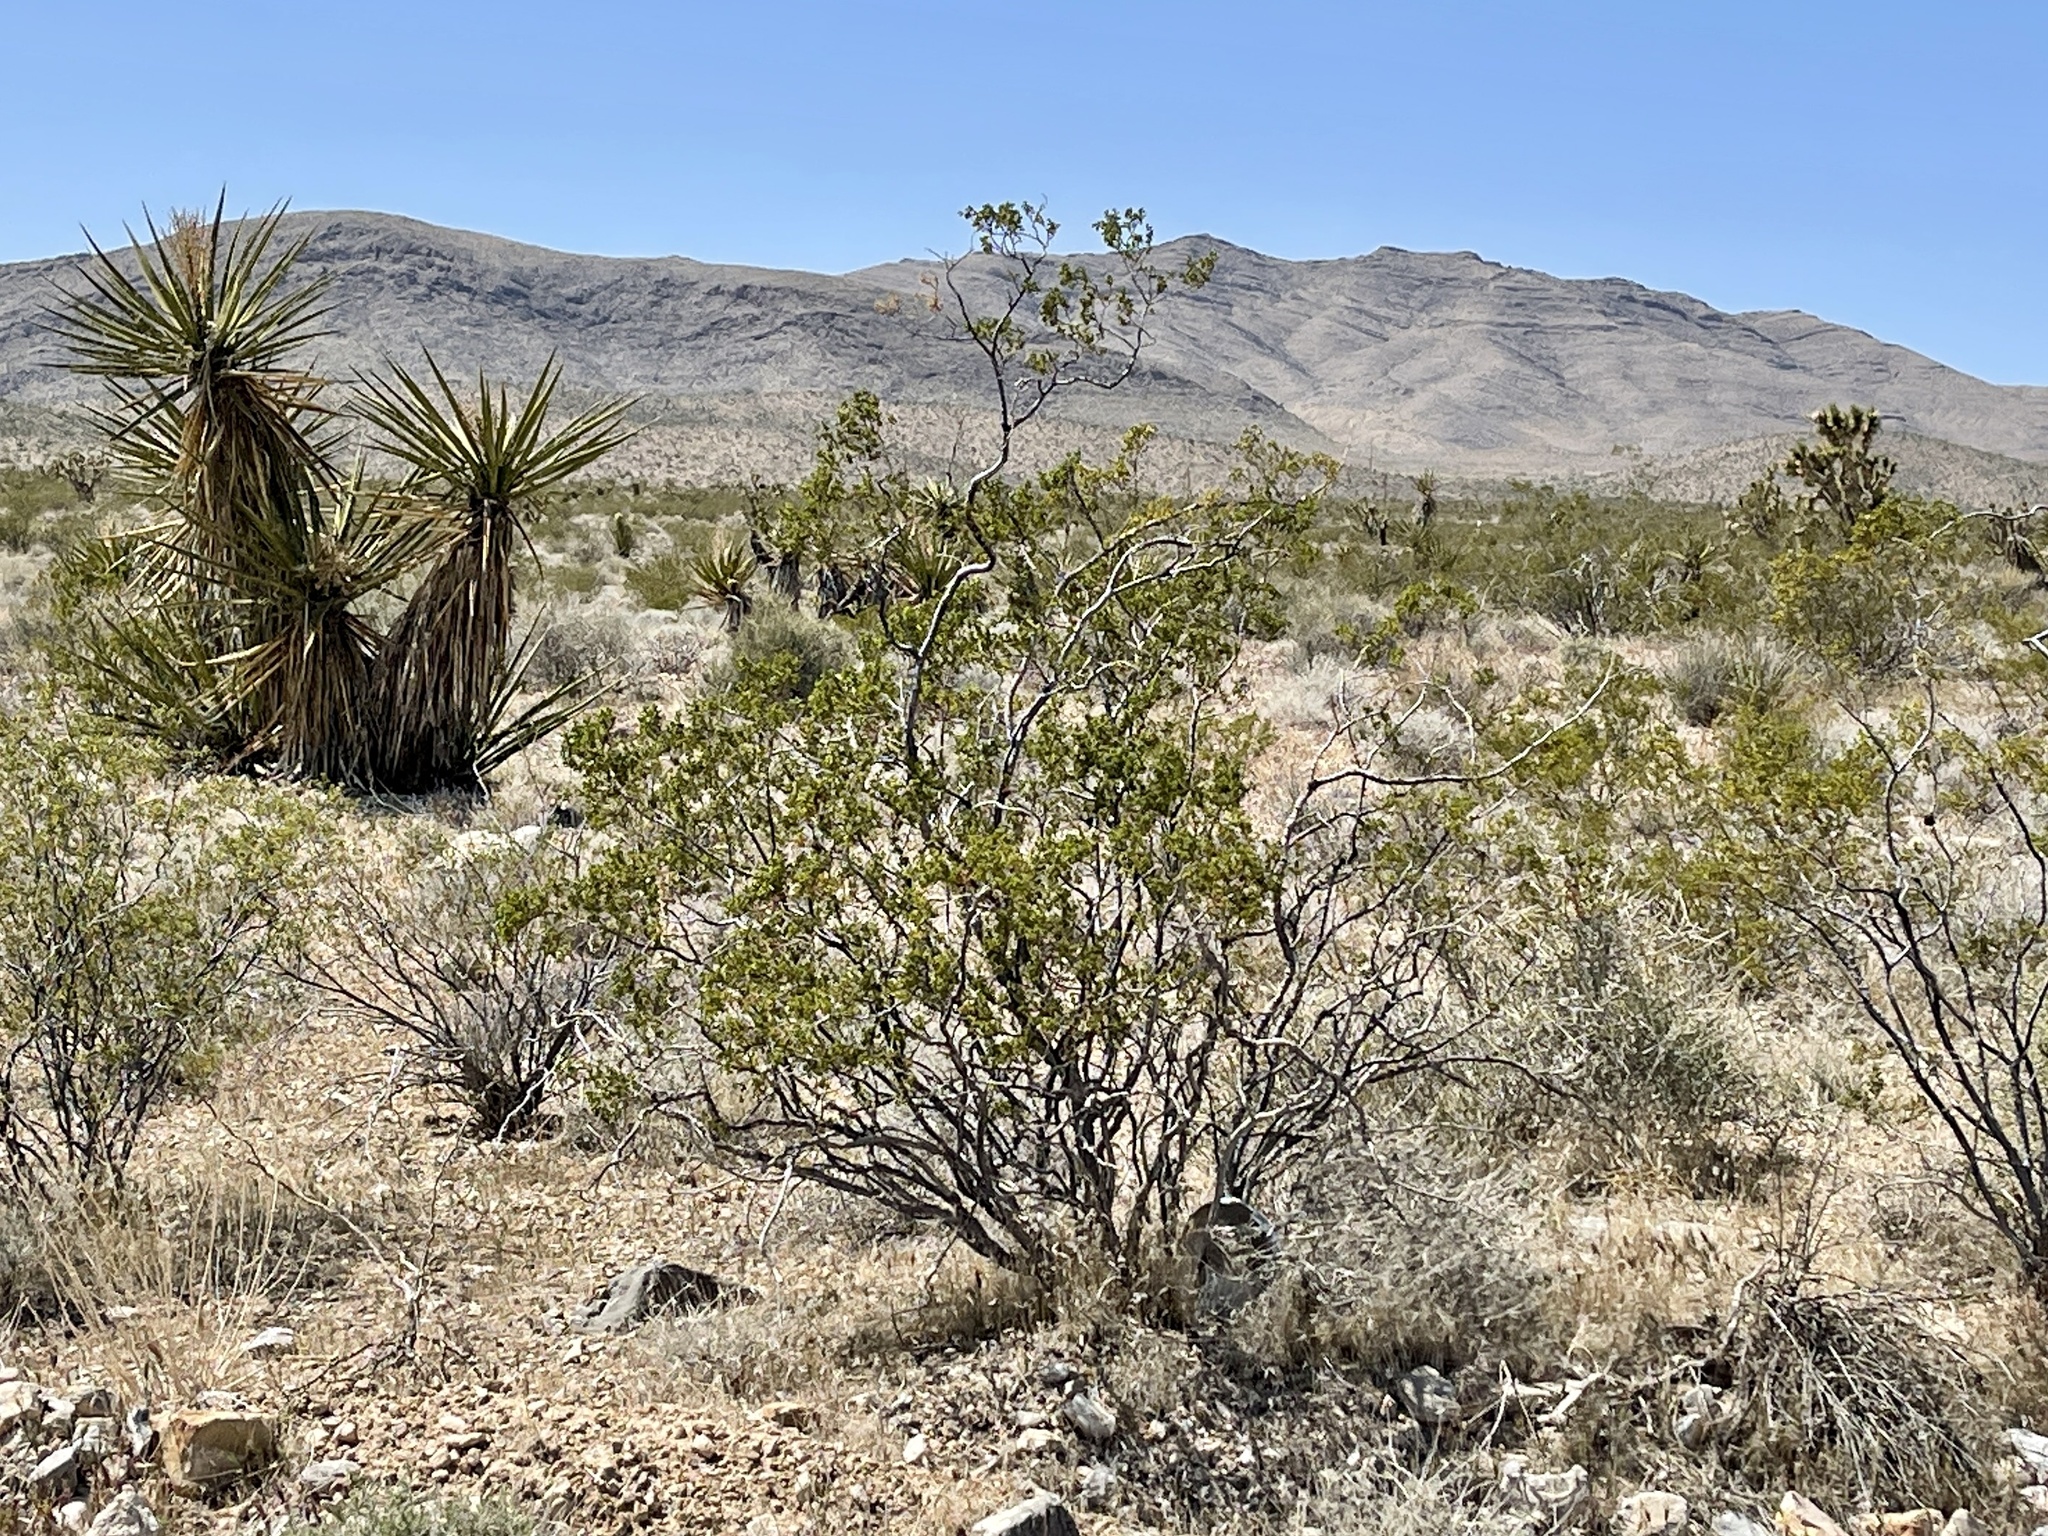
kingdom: Plantae
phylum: Tracheophyta
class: Magnoliopsida
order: Zygophyllales
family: Zygophyllaceae
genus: Larrea
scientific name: Larrea tridentata
